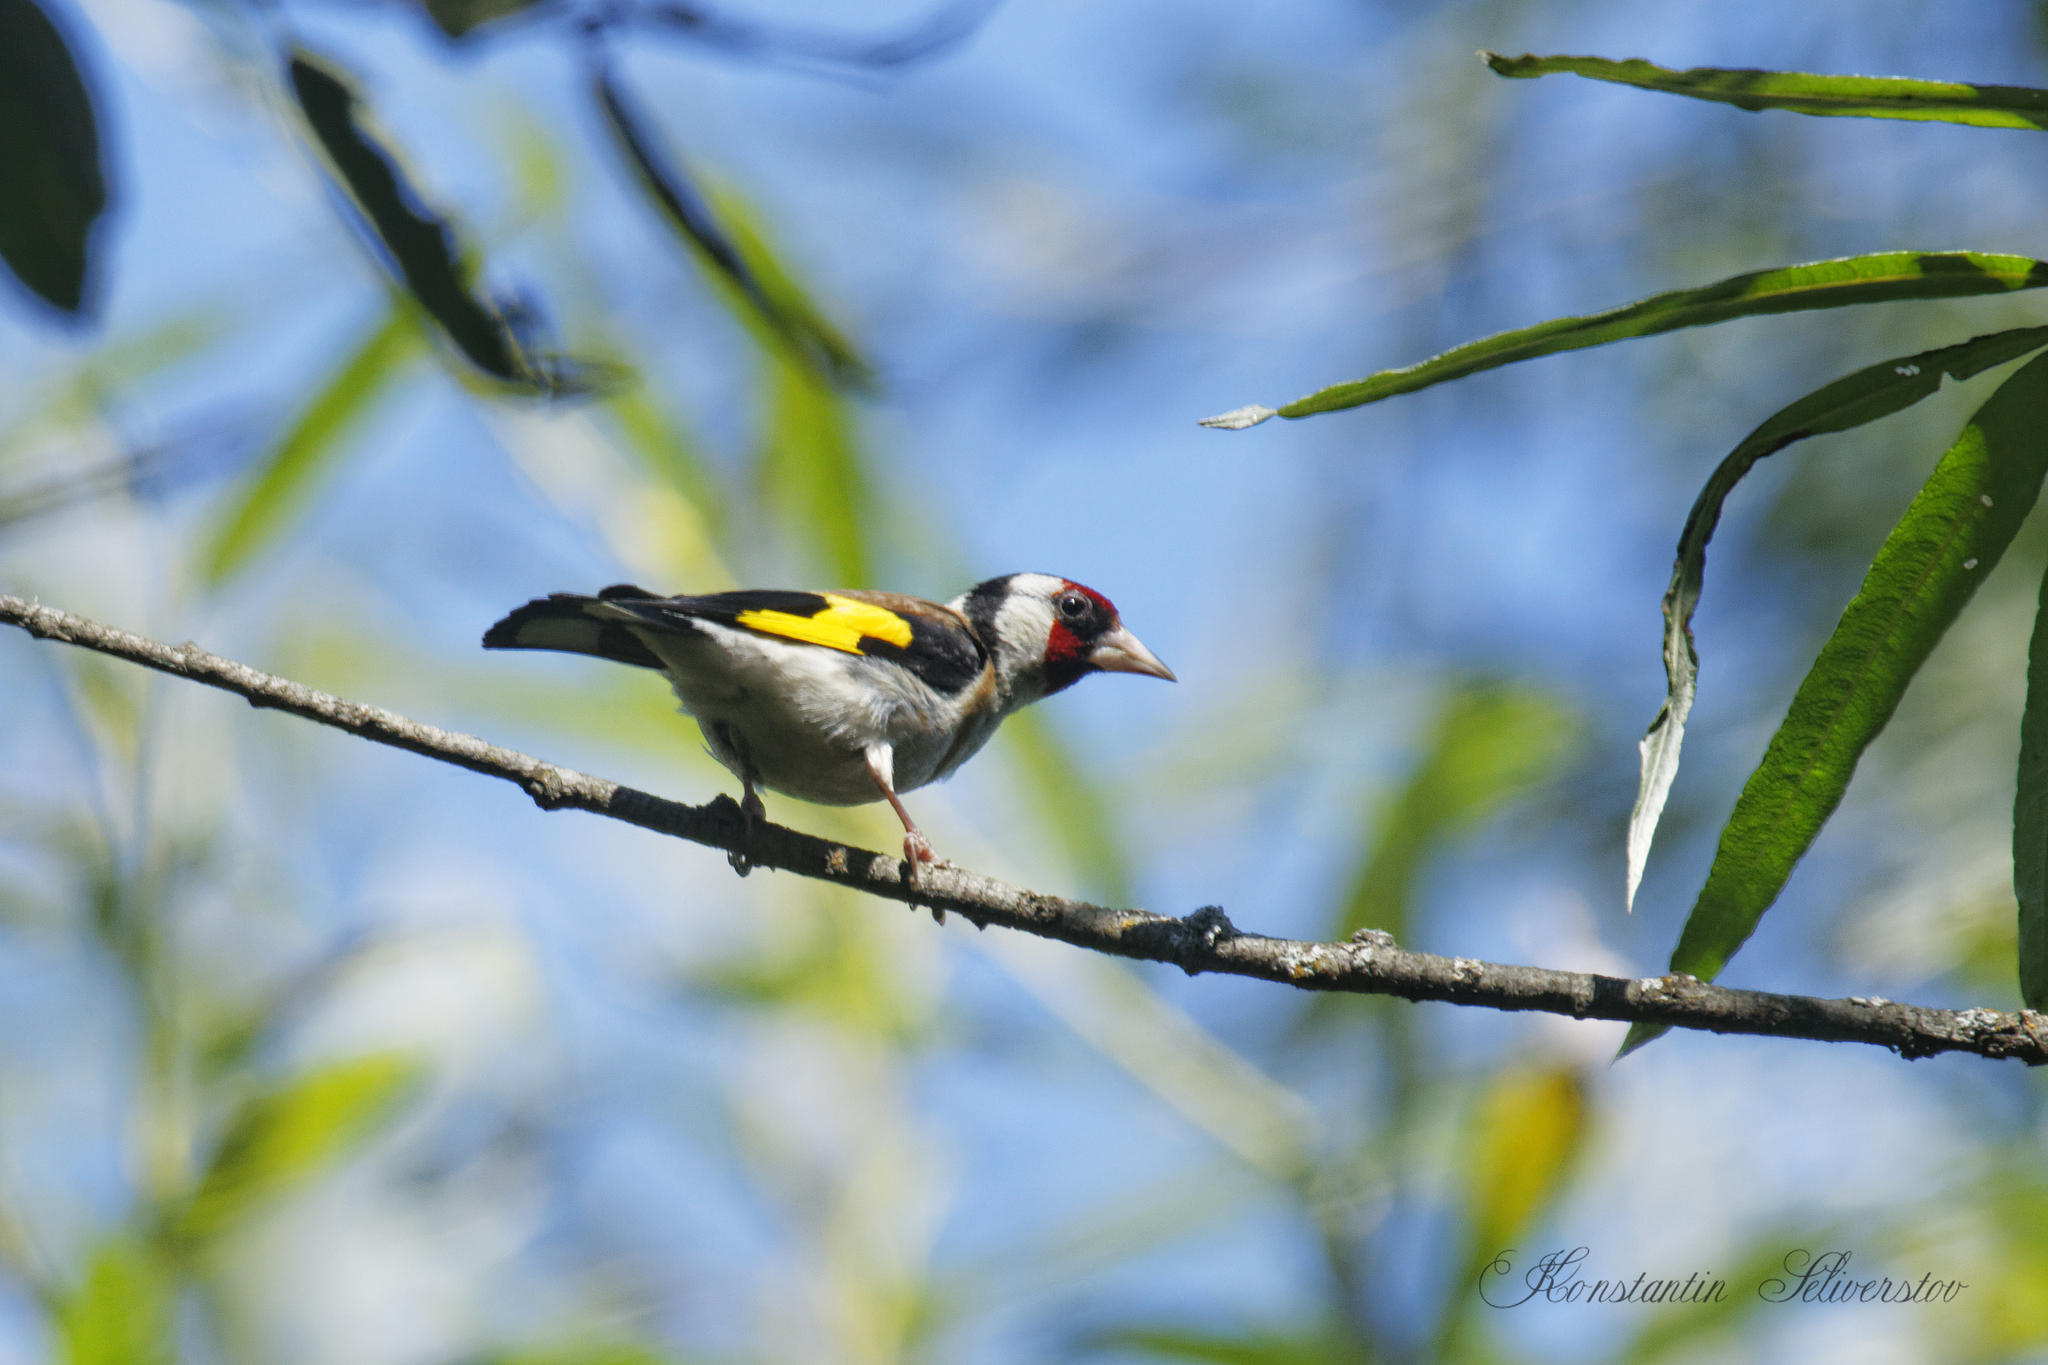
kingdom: Animalia
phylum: Chordata
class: Aves
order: Passeriformes
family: Fringillidae
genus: Carduelis
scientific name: Carduelis carduelis
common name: European goldfinch
